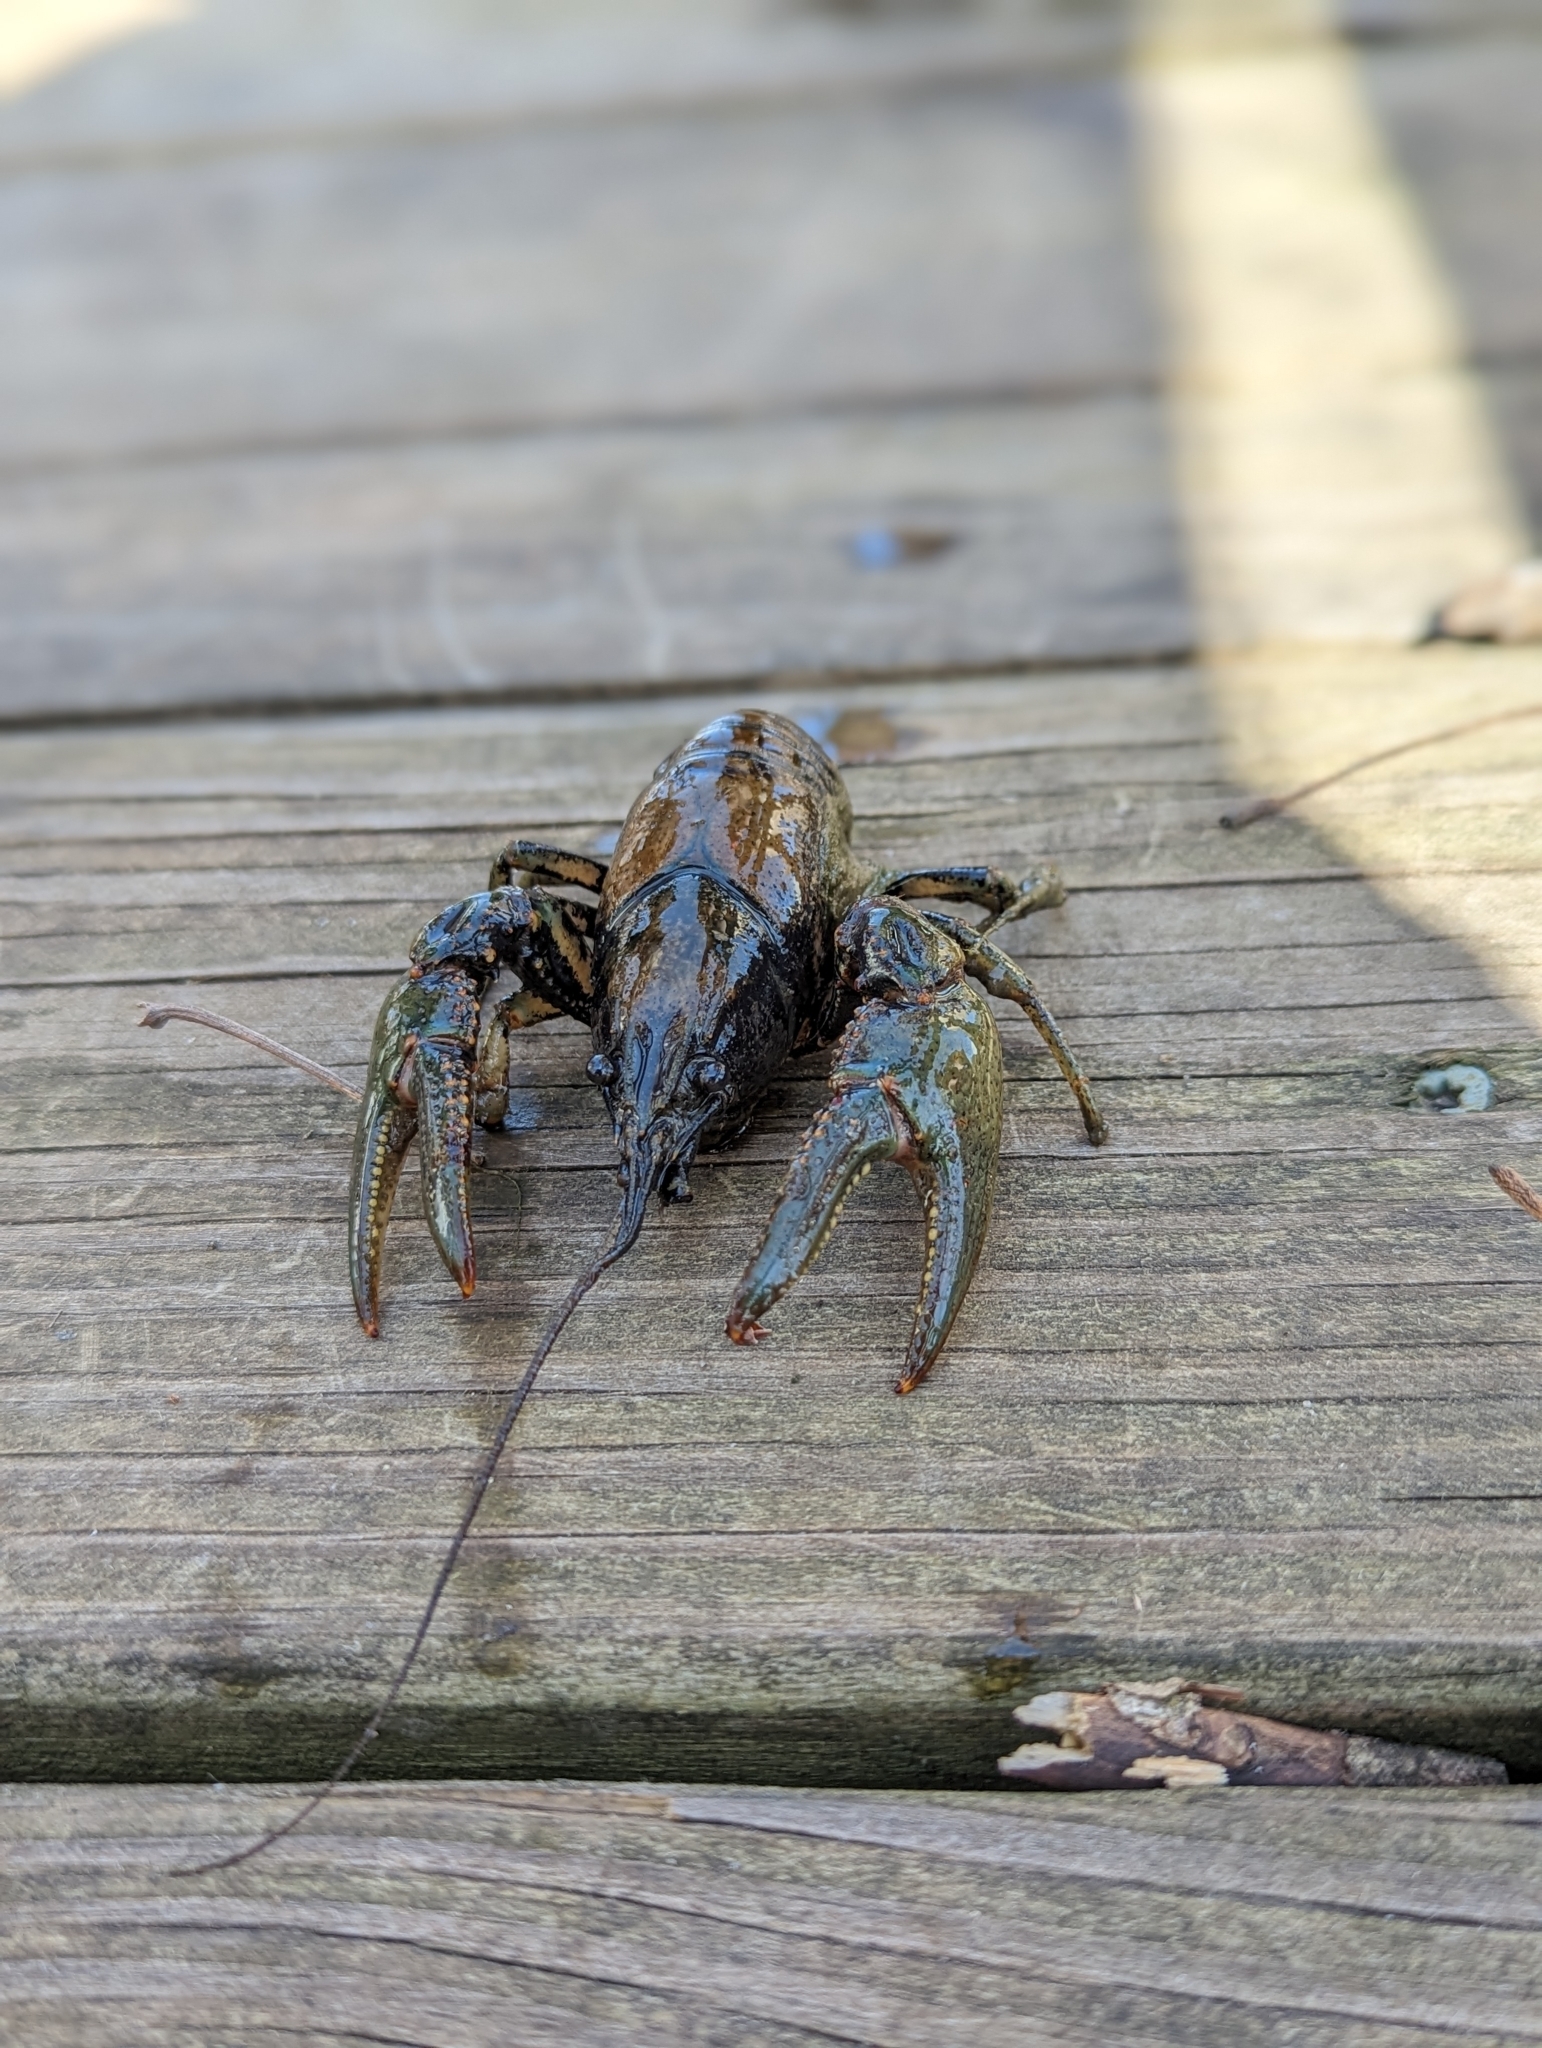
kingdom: Animalia
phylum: Arthropoda
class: Malacostraca
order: Decapoda
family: Cambaridae
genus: Faxonius
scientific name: Faxonius virilis
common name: Virile crayfish
